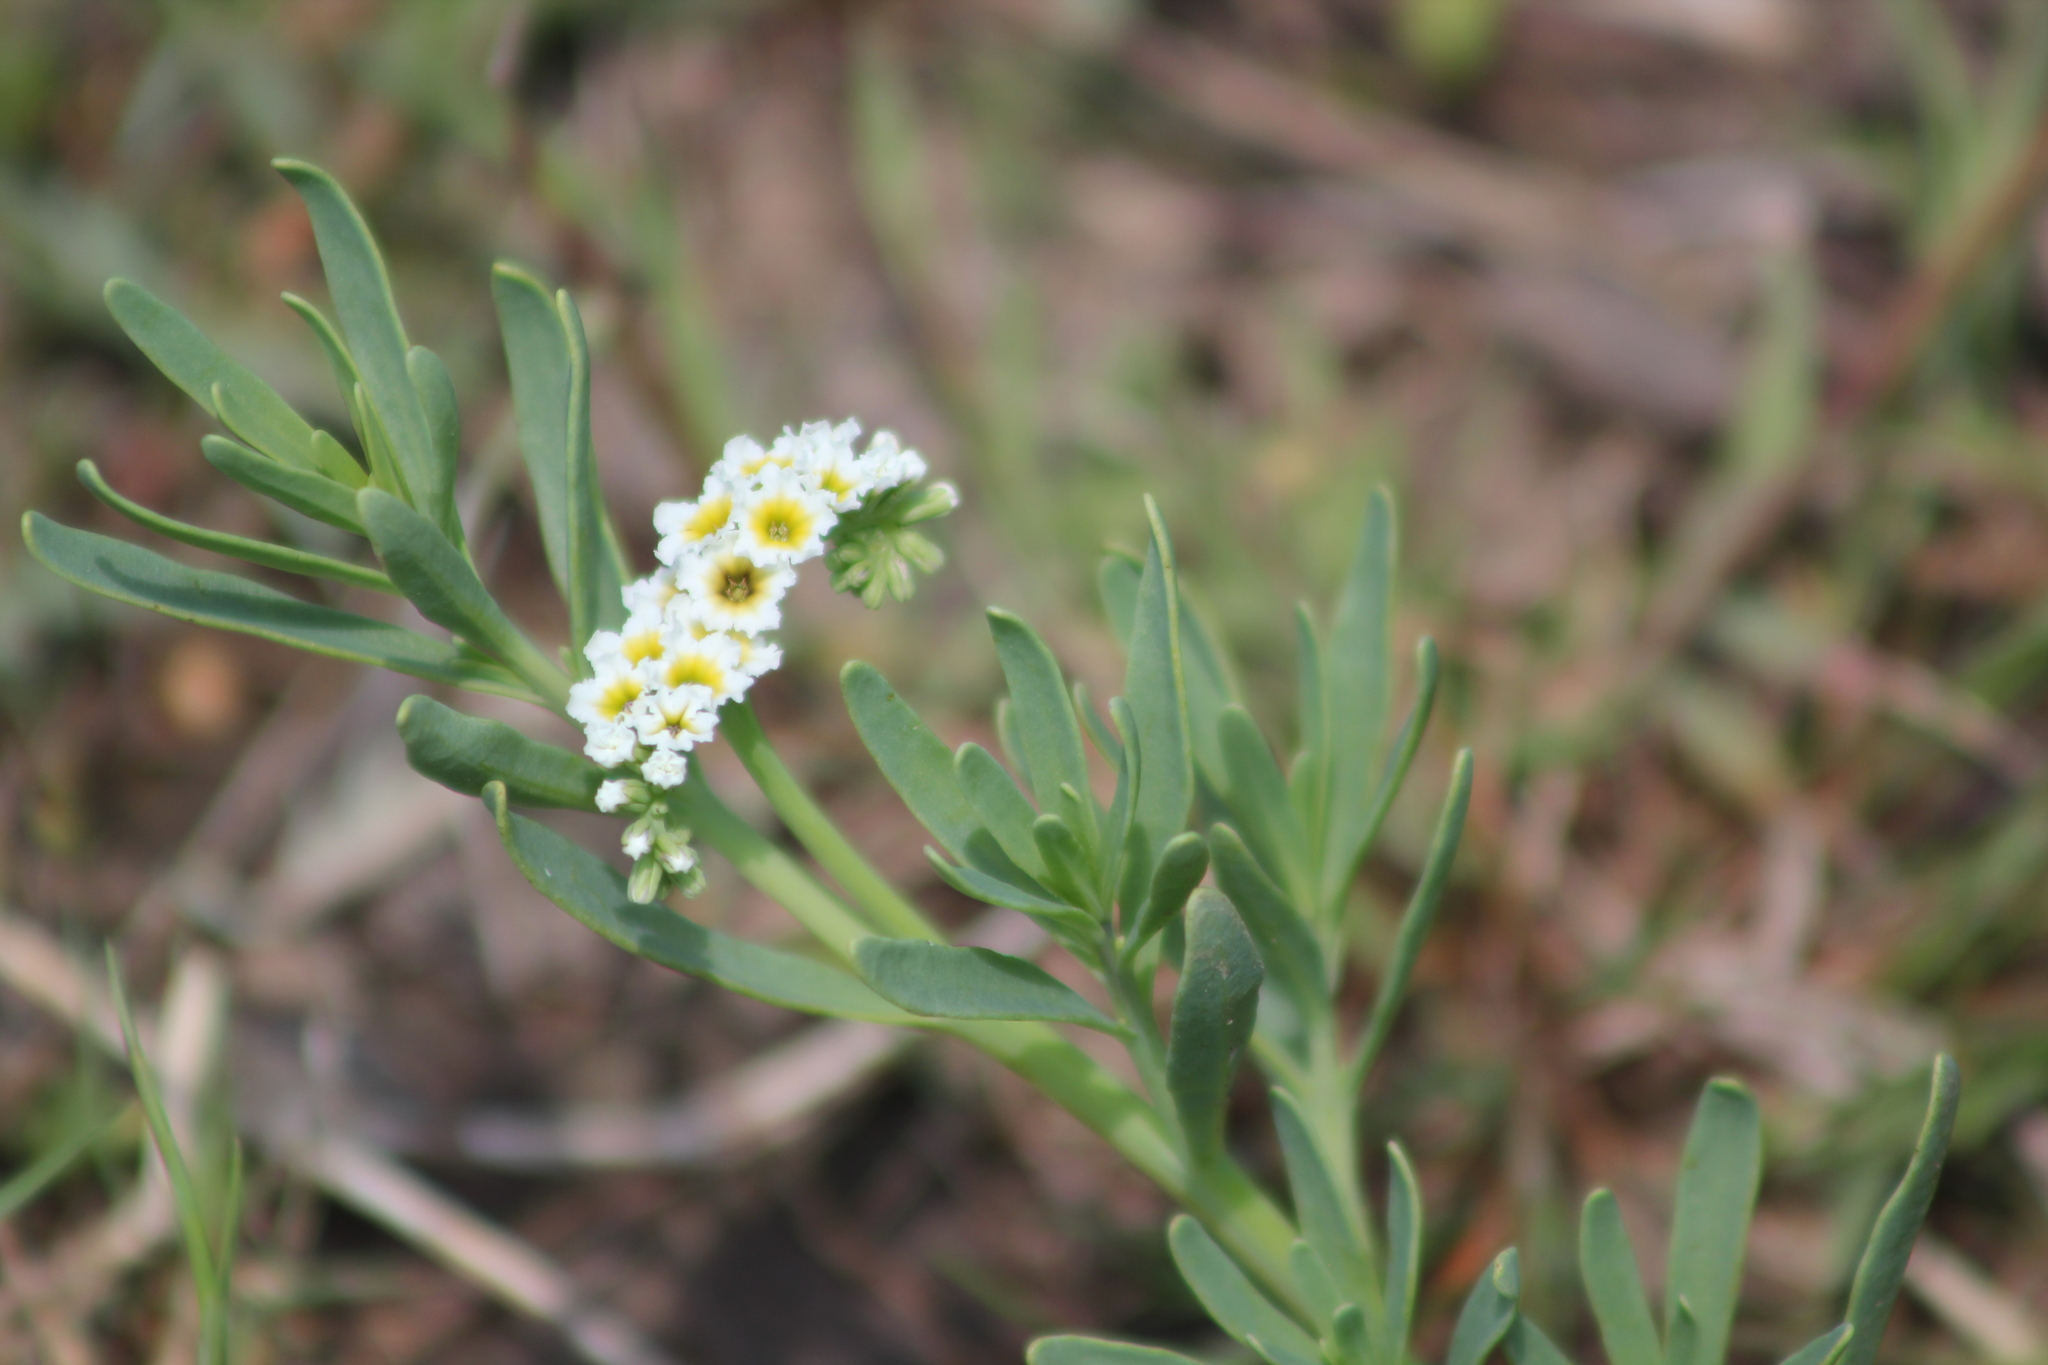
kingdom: Plantae
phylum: Tracheophyta
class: Magnoliopsida
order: Boraginales
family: Heliotropiaceae
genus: Heliotropium
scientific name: Heliotropium curassavicum
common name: Seaside heliotrope
